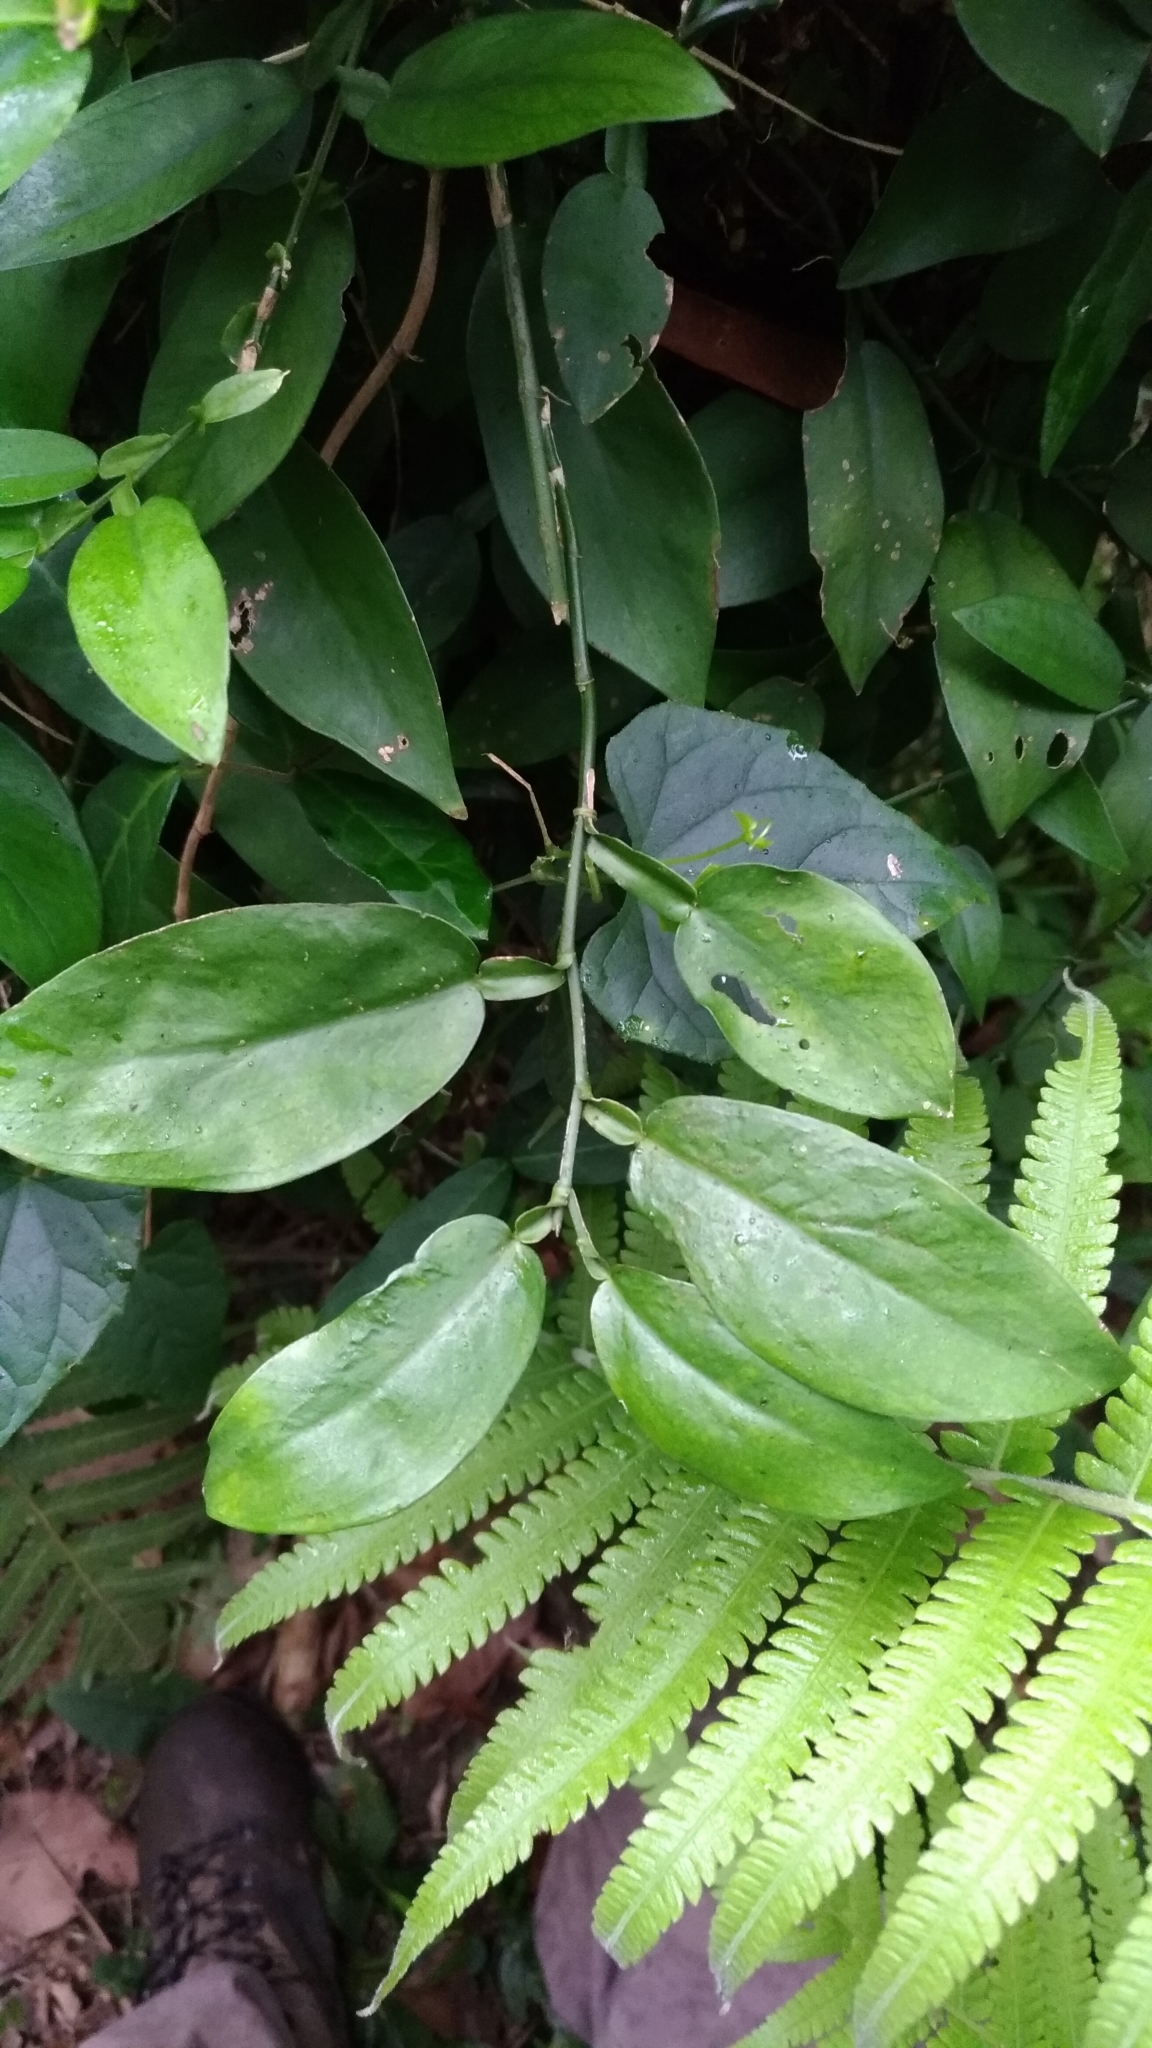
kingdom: Plantae
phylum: Tracheophyta
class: Liliopsida
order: Alismatales
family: Araceae
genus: Pothos
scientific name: Pothos chinensis
